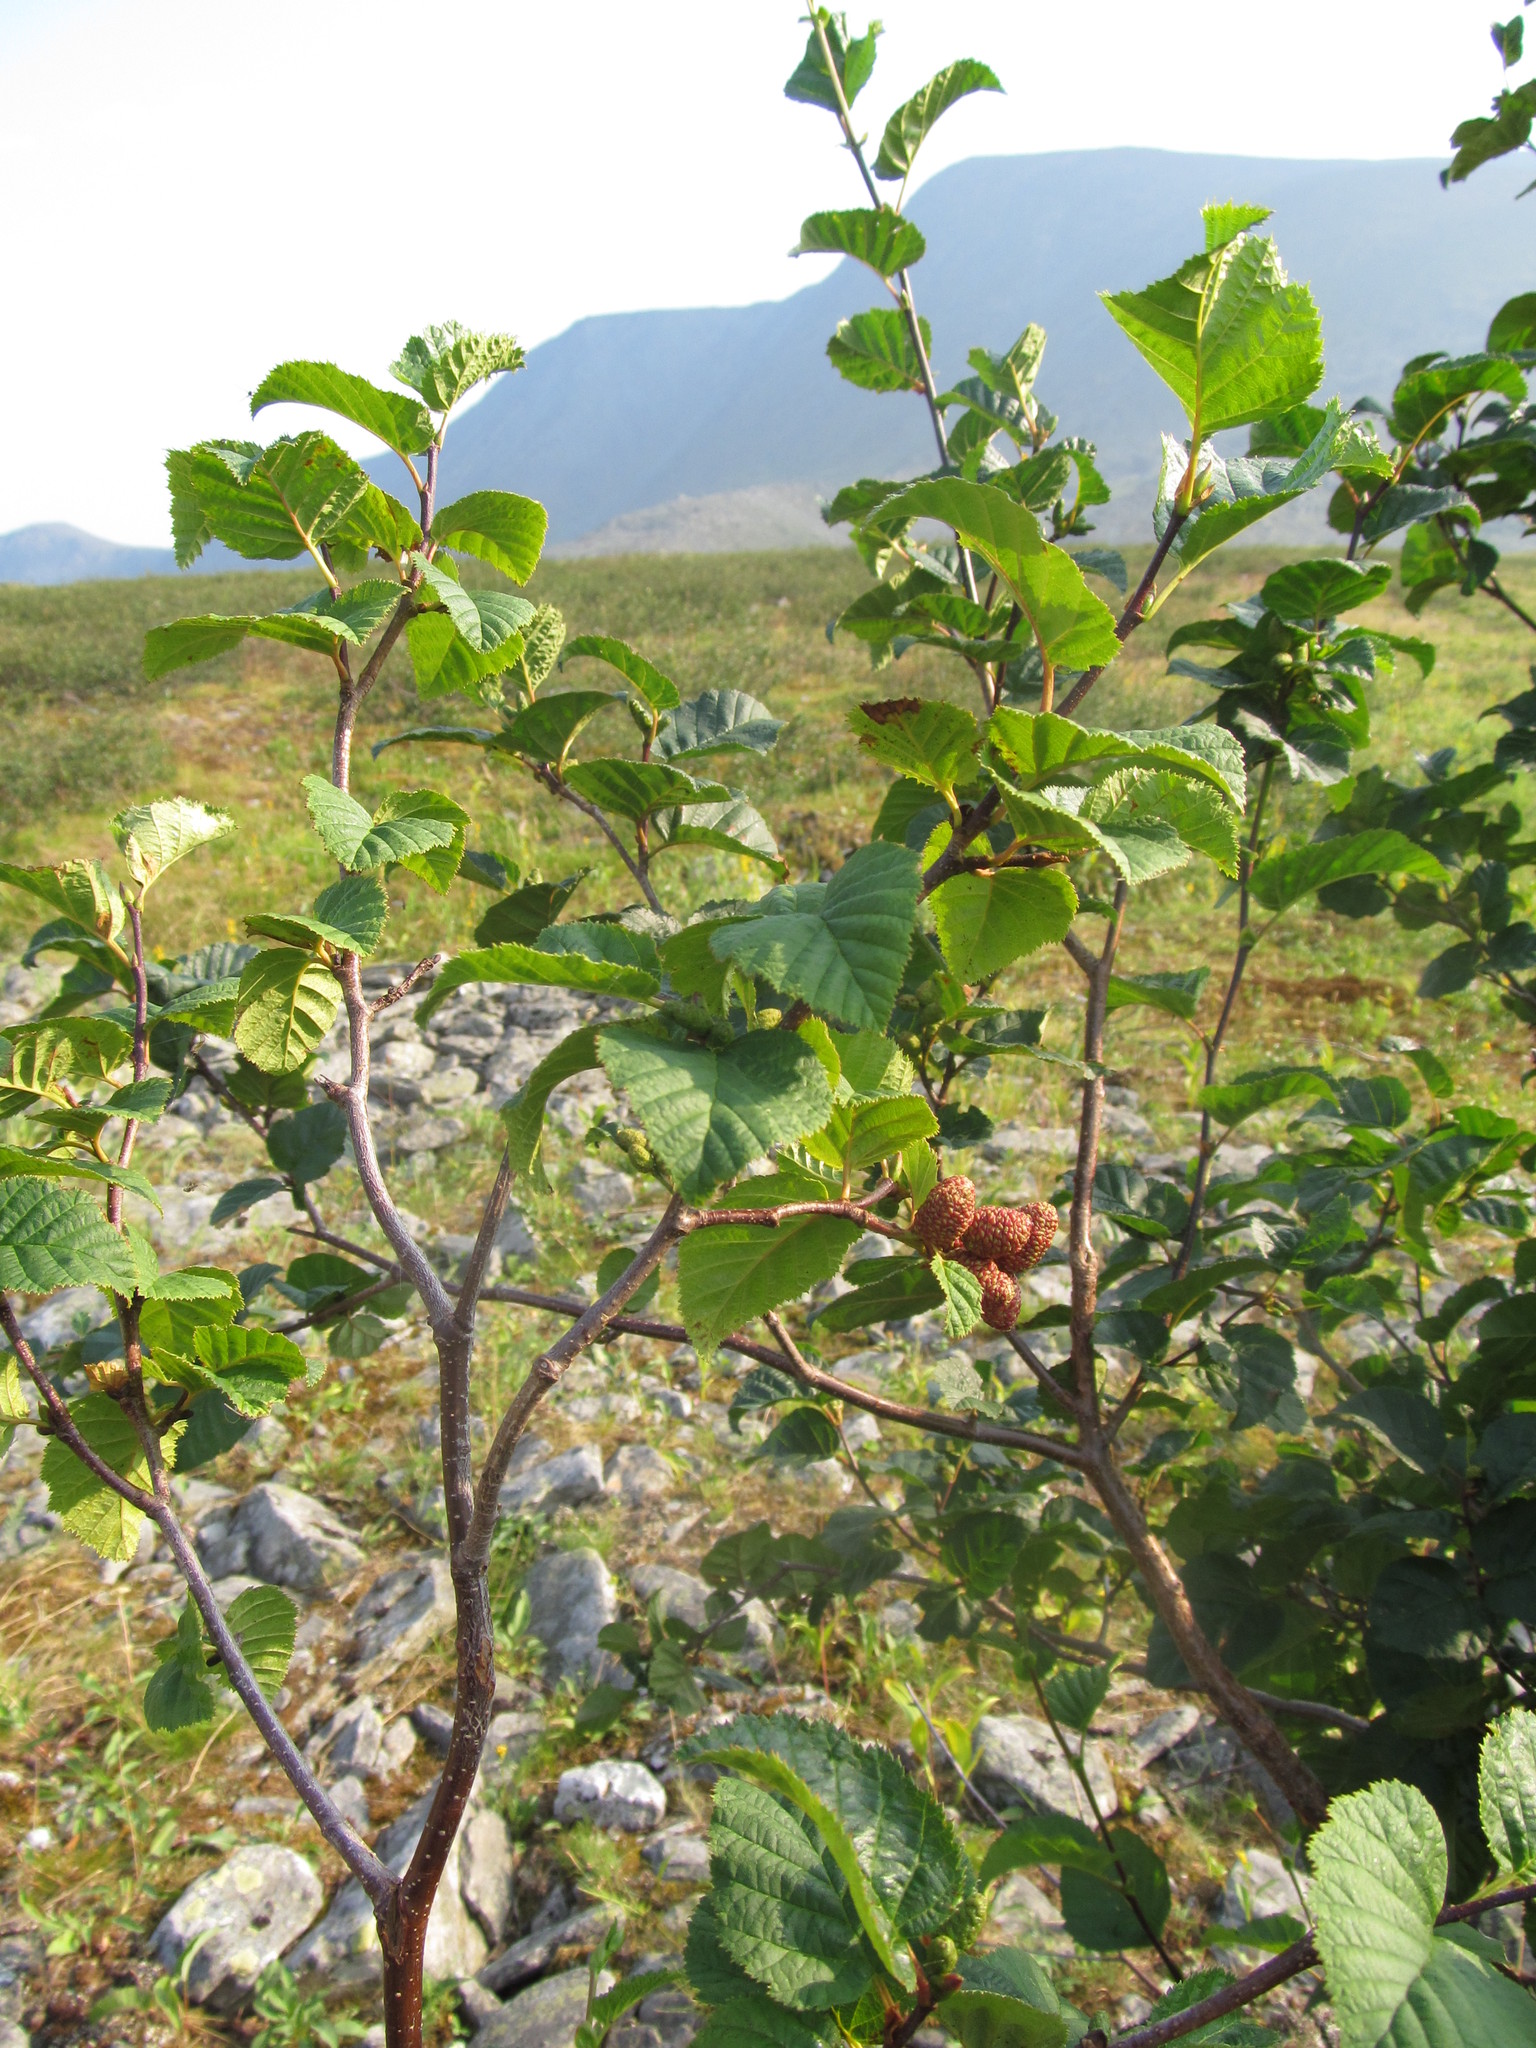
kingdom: Plantae
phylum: Tracheophyta
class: Magnoliopsida
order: Fagales
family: Betulaceae
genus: Alnus
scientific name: Alnus alnobetula
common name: Green alder
